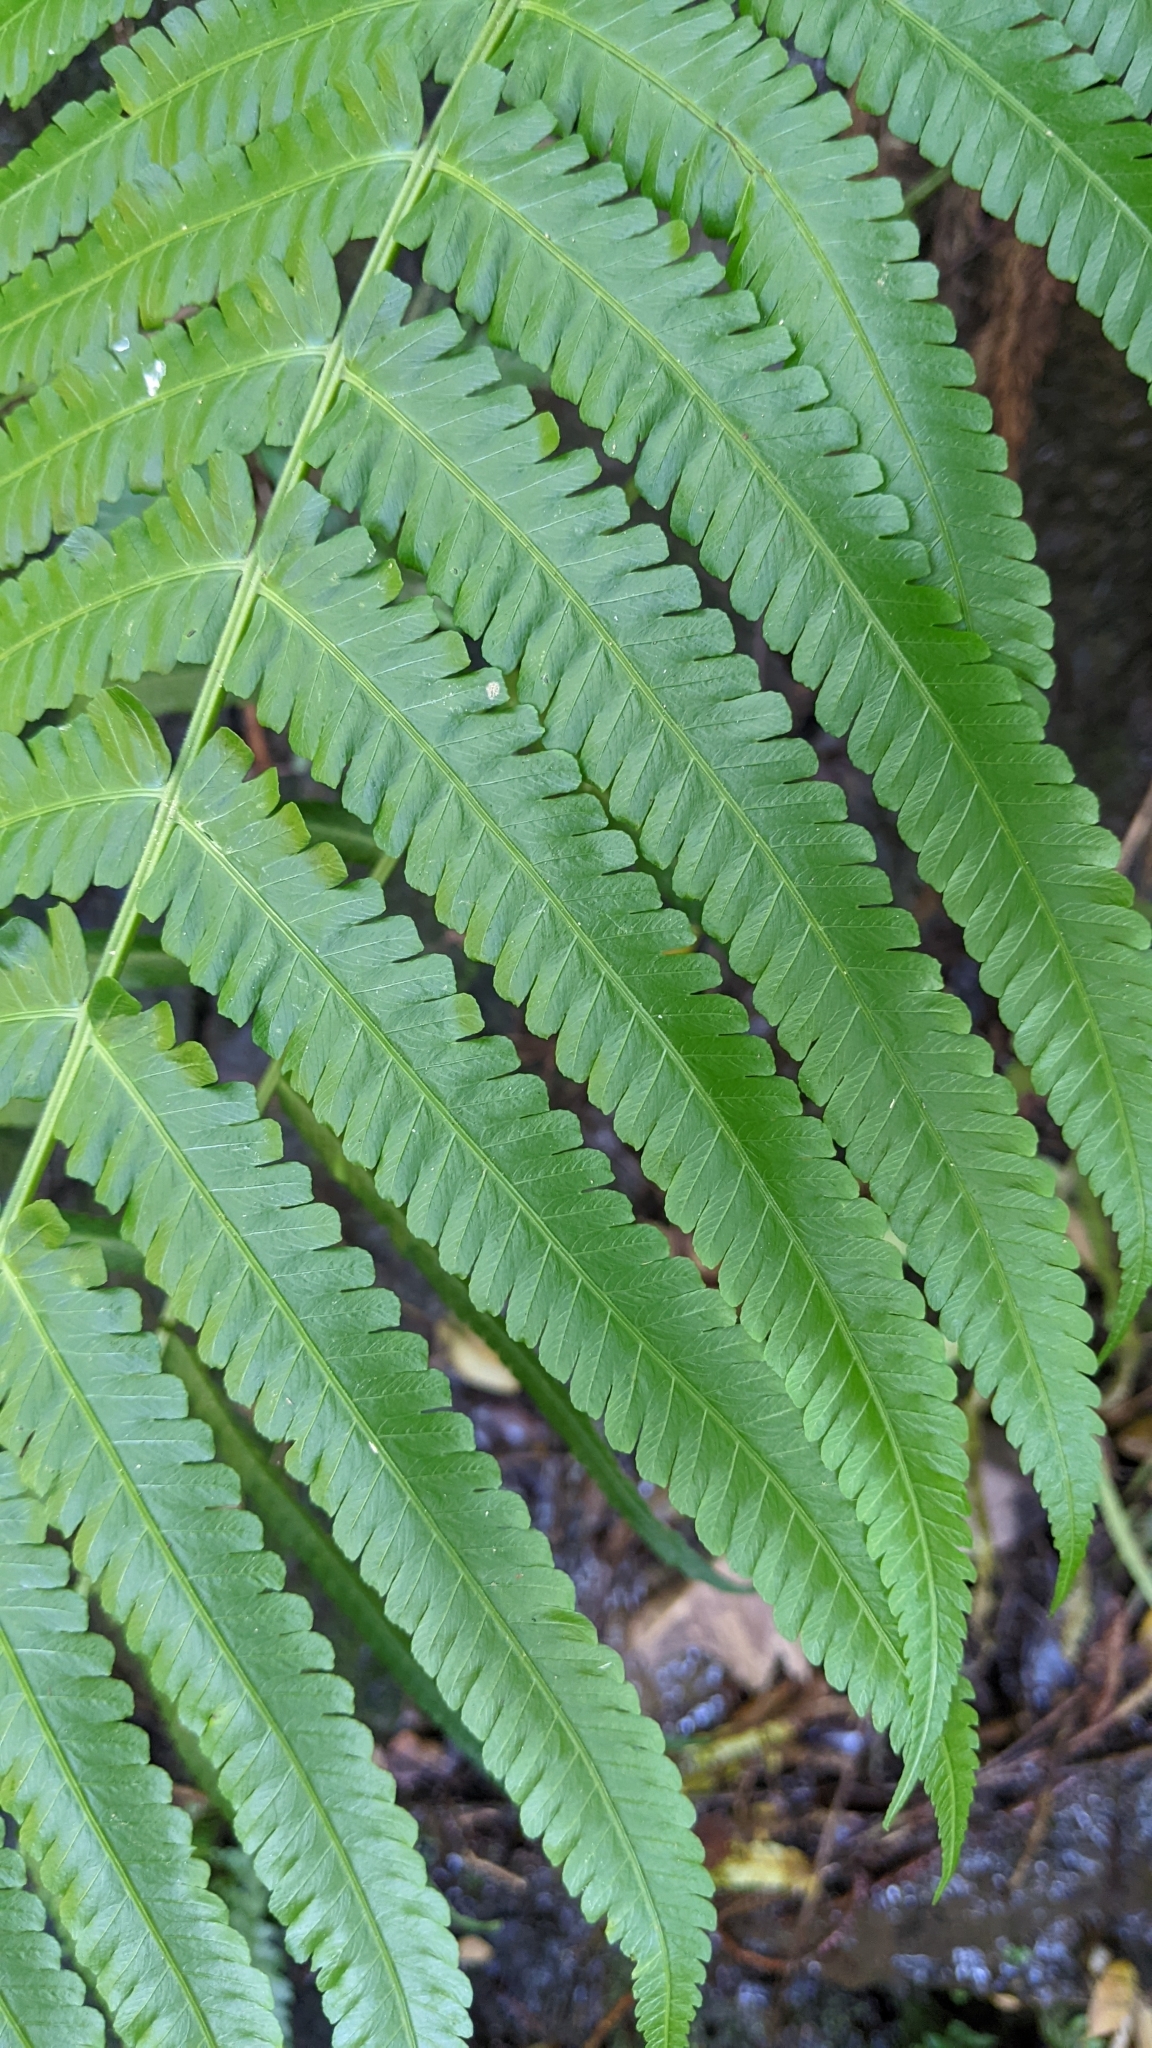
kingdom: Plantae
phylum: Tracheophyta
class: Polypodiopsida
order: Polypodiales
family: Thelypteridaceae
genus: Reholttumia
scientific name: Reholttumia truncata
